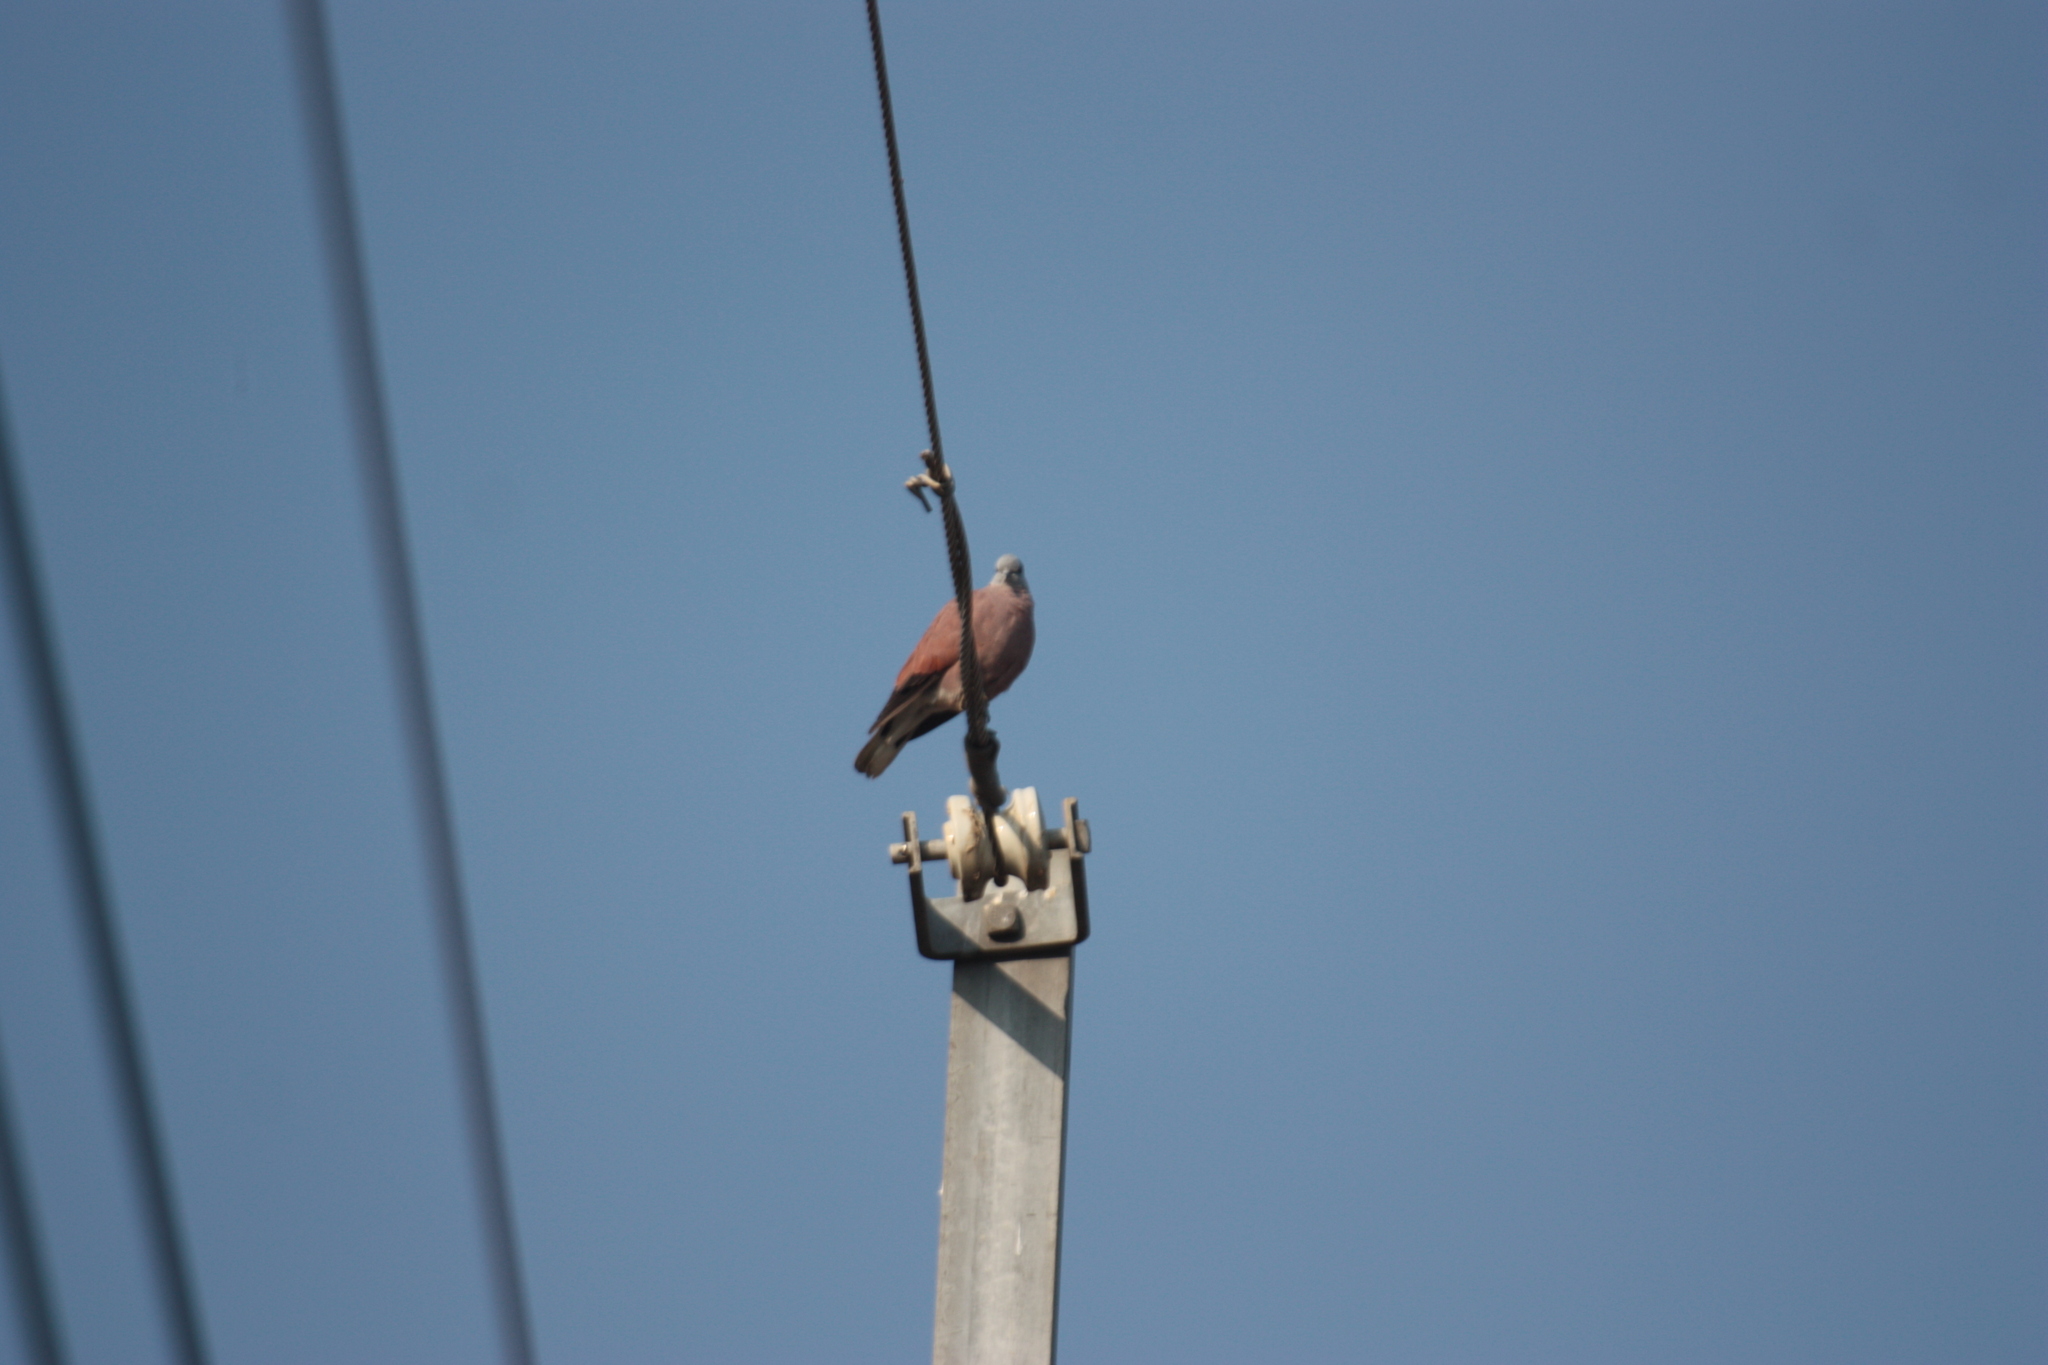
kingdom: Animalia
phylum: Chordata
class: Aves
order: Columbiformes
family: Columbidae
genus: Streptopelia
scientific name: Streptopelia tranquebarica
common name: Red turtle dove
